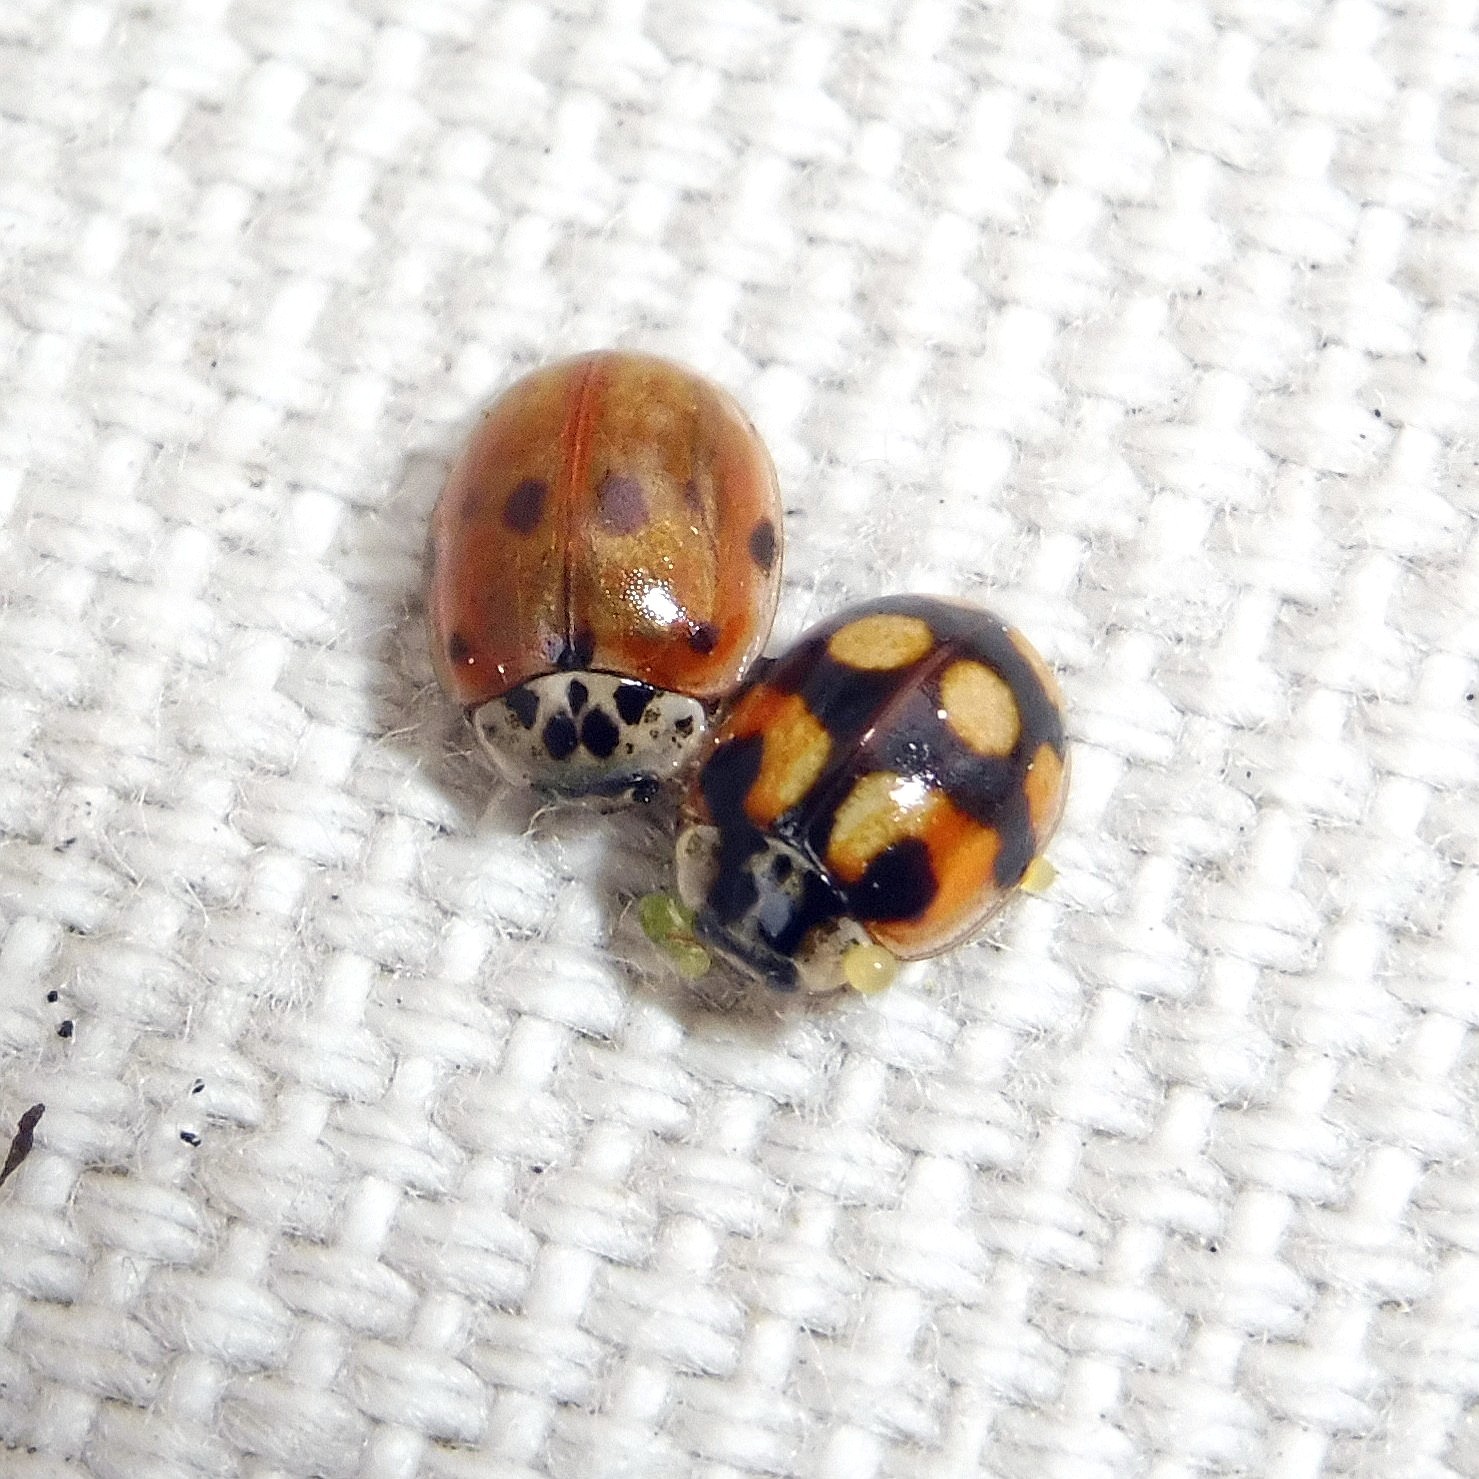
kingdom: Animalia
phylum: Arthropoda
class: Insecta
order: Coleoptera
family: Coccinellidae
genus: Adalia
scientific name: Adalia decempunctata
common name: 10-spot ladybird
